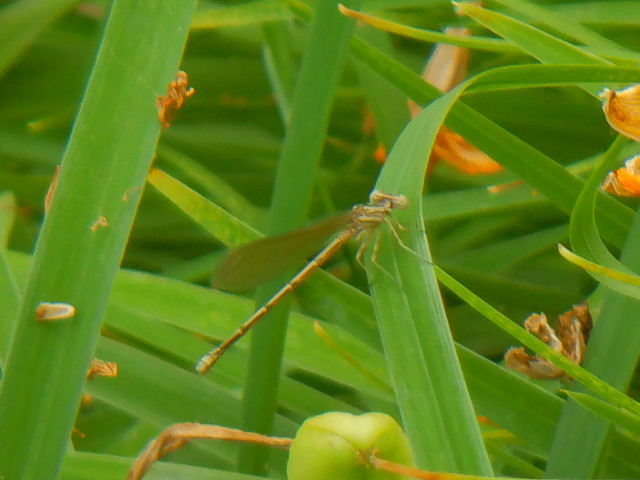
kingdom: Animalia
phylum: Arthropoda
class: Insecta
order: Odonata
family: Coenagrionidae
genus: Argia
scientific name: Argia fumipennis
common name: Variable dancer
